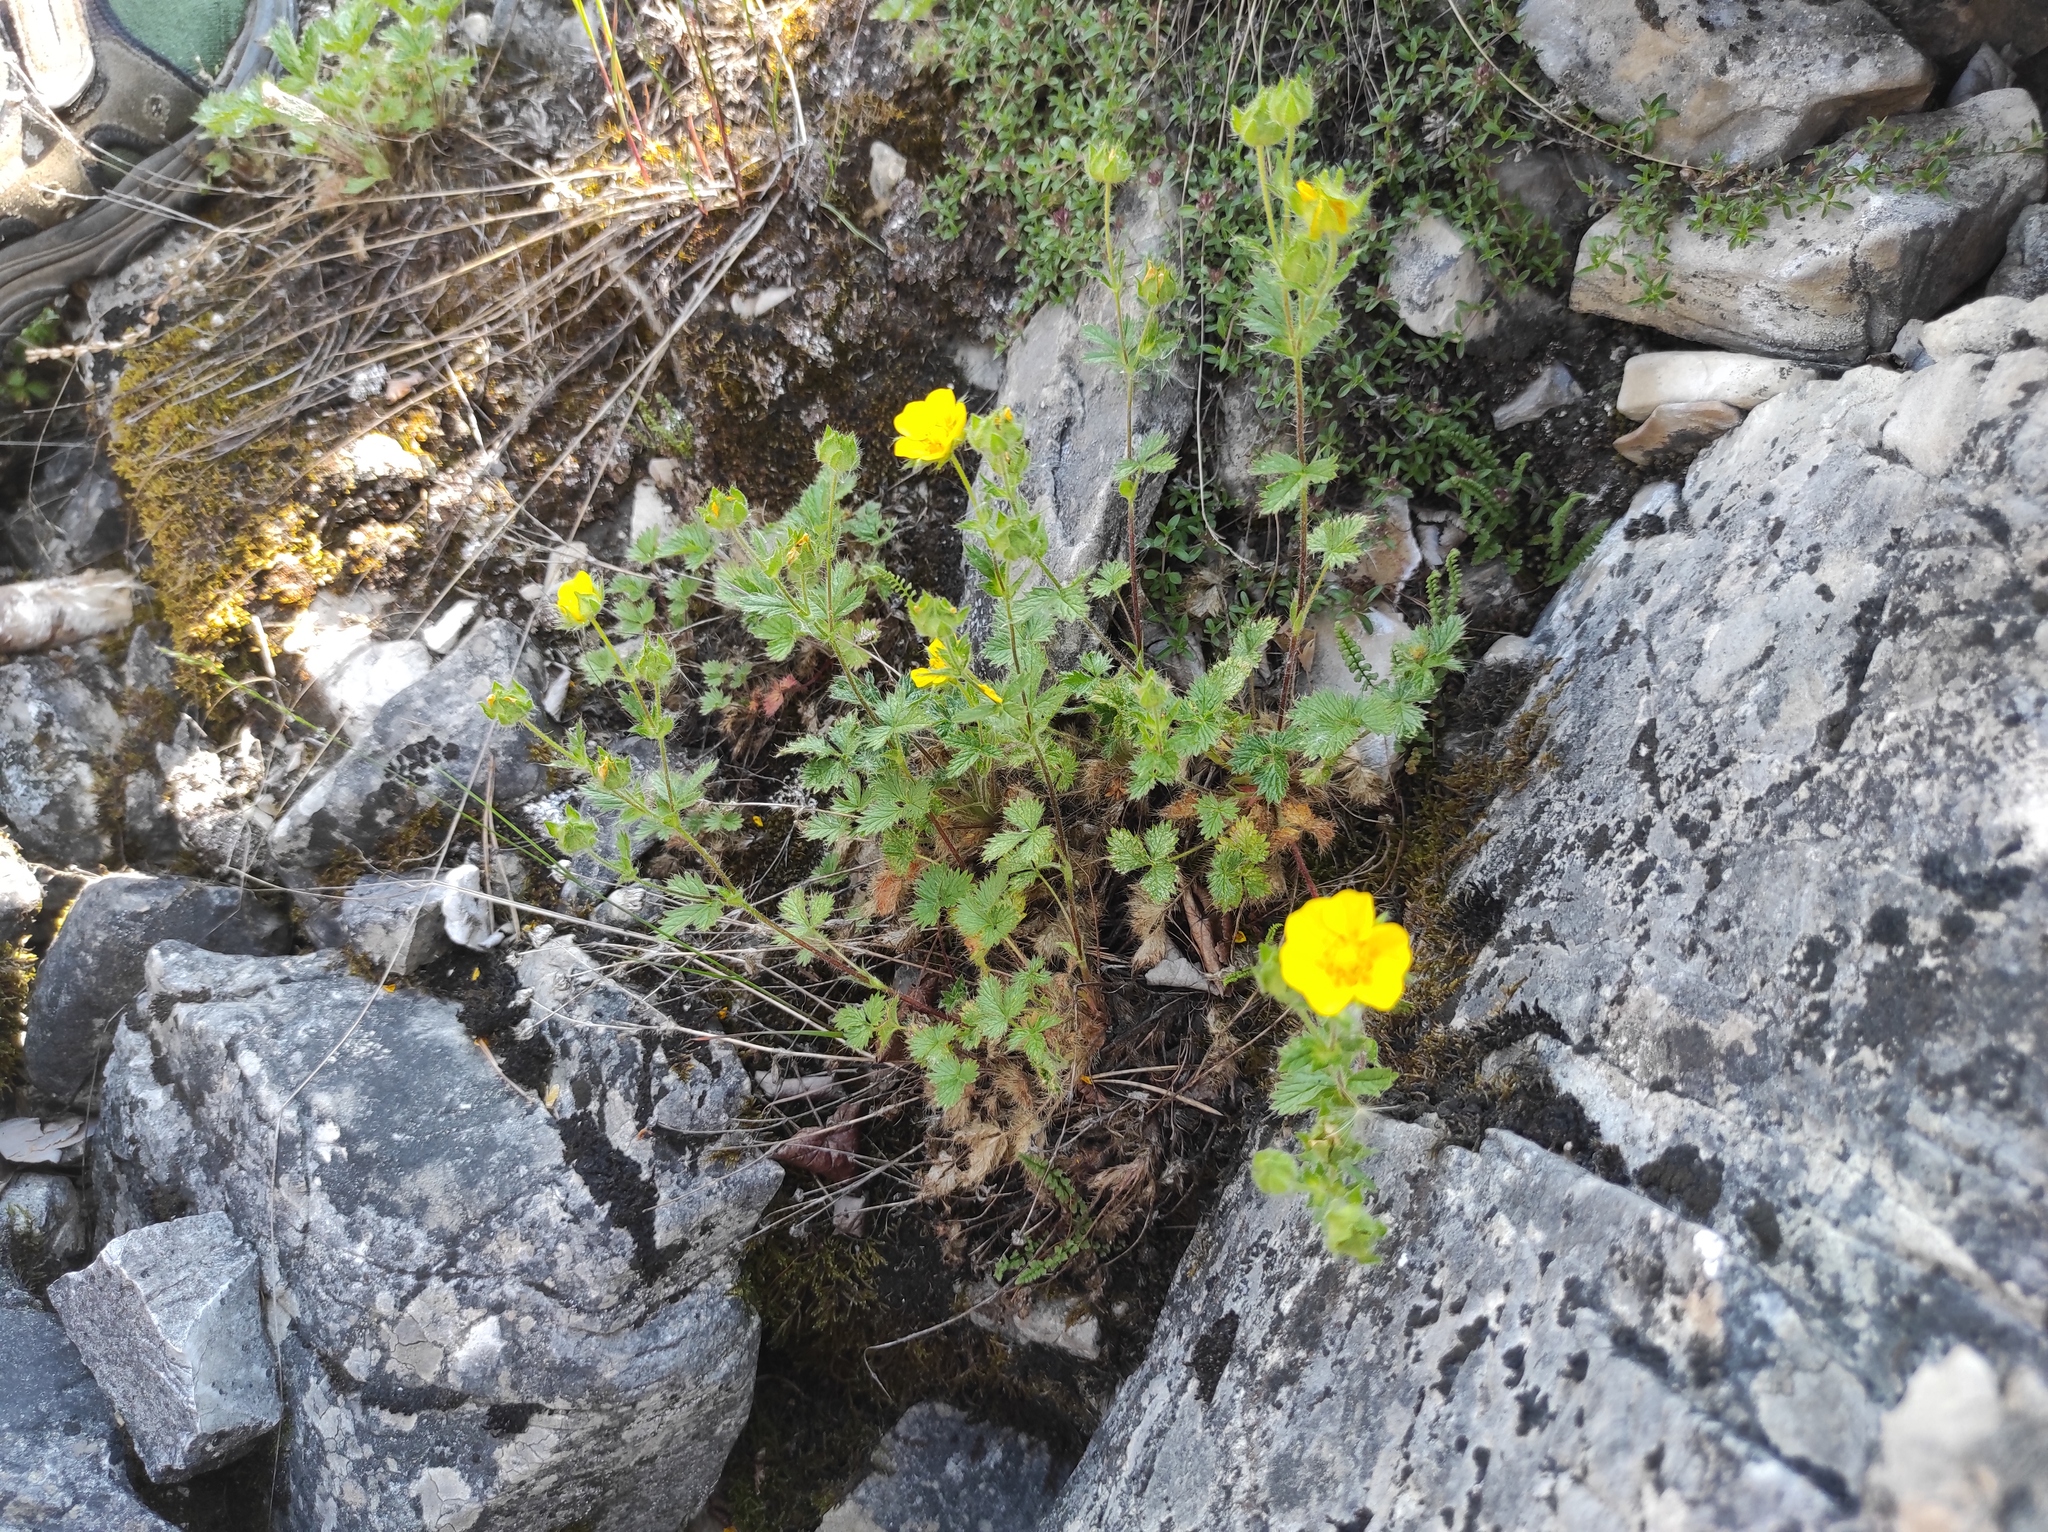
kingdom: Plantae
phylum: Tracheophyta
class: Magnoliopsida
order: Rosales
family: Rosaceae
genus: Potentilla
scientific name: Potentilla asperrima
